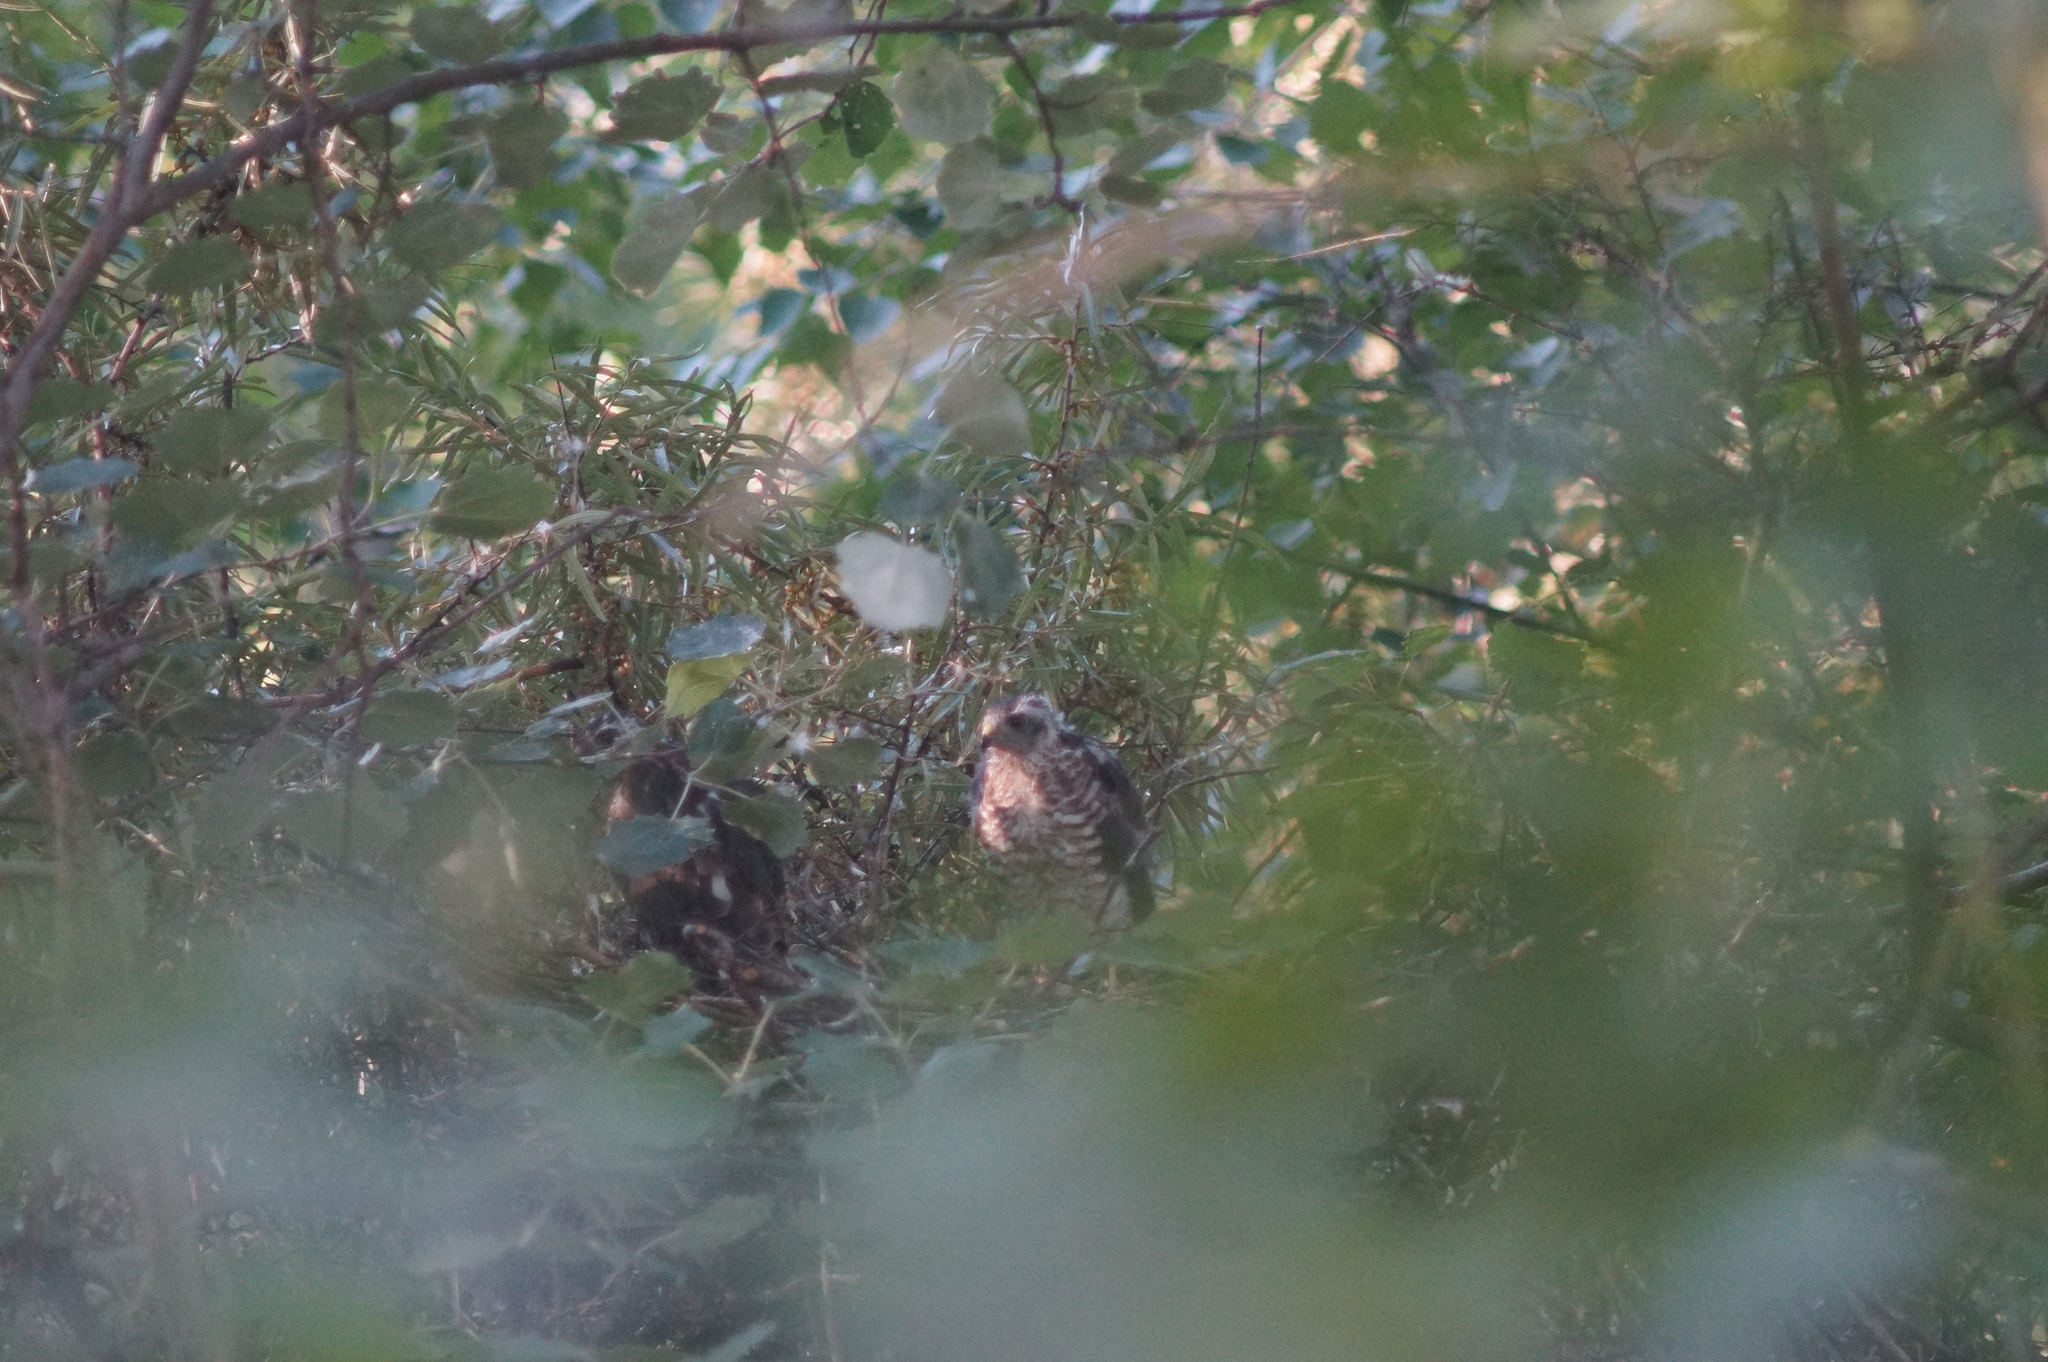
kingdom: Animalia
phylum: Chordata
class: Aves
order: Accipitriformes
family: Accipitridae
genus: Accipiter
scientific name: Accipiter nisus
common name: Eurasian sparrowhawk
